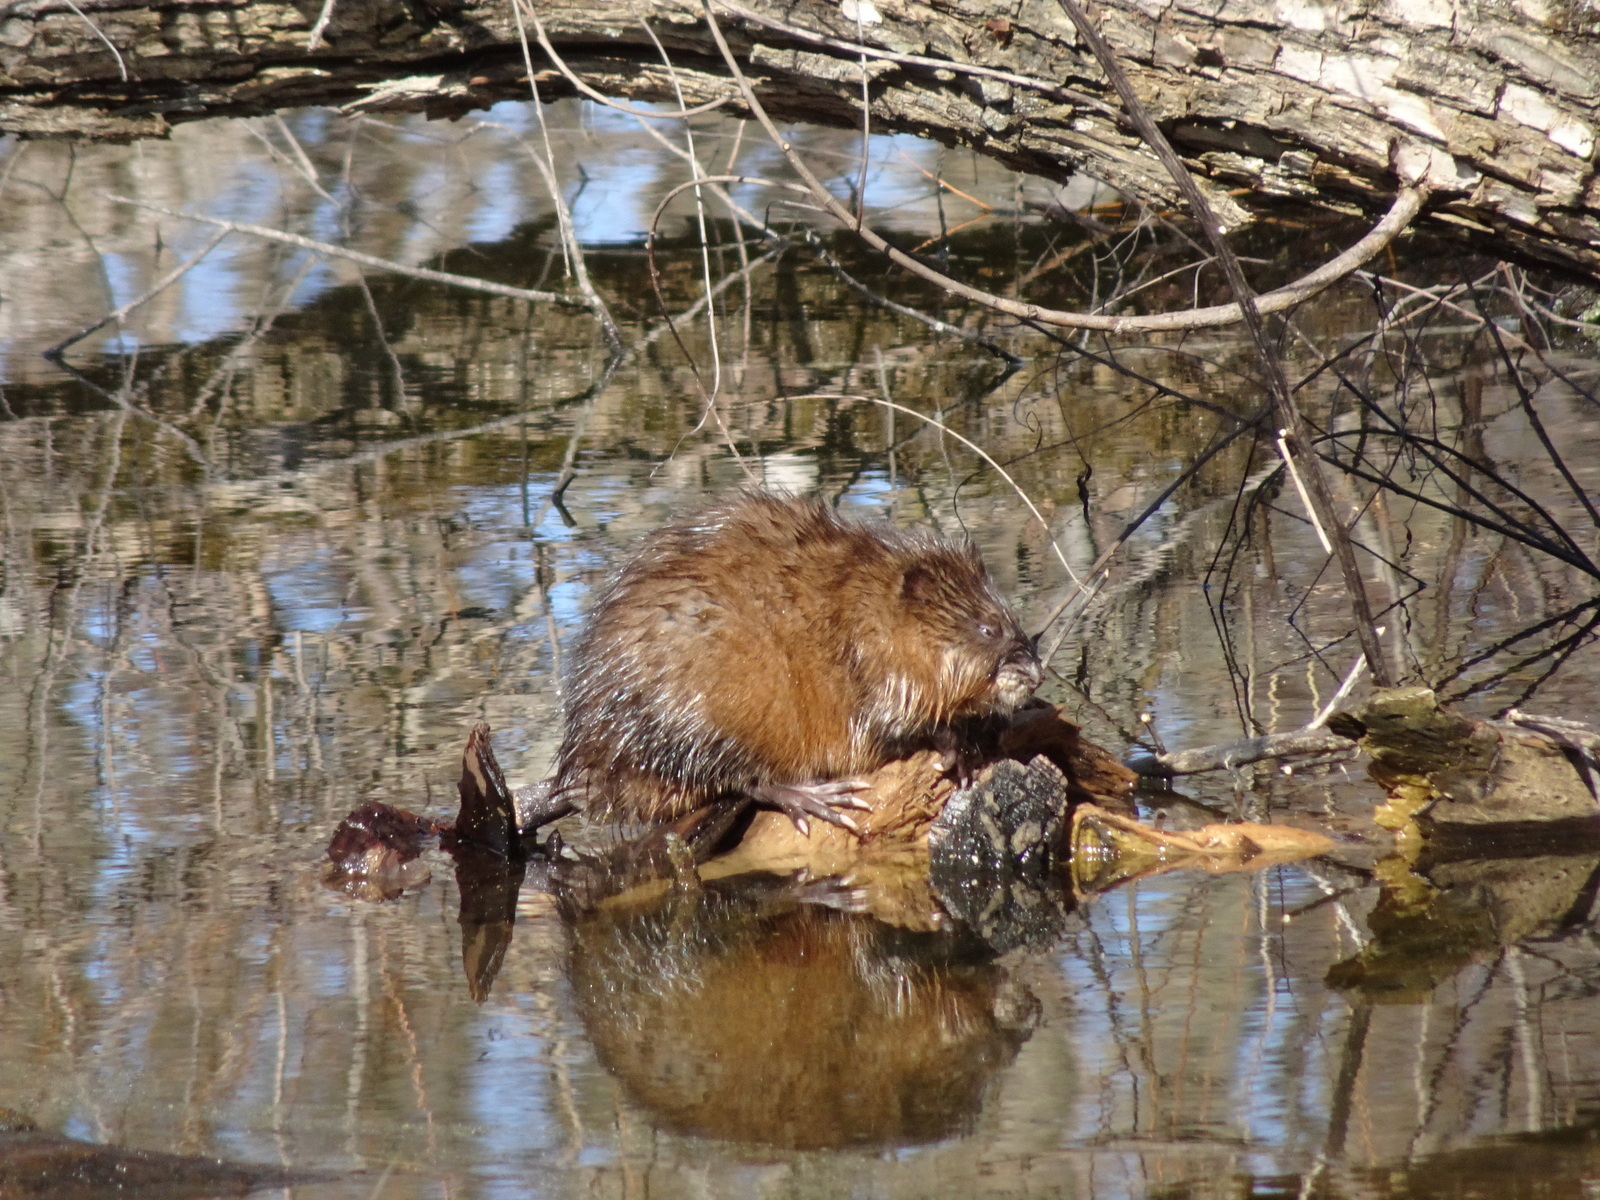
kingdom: Animalia
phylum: Chordata
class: Mammalia
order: Rodentia
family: Cricetidae
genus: Ondatra
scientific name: Ondatra zibethicus
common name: Muskrat
